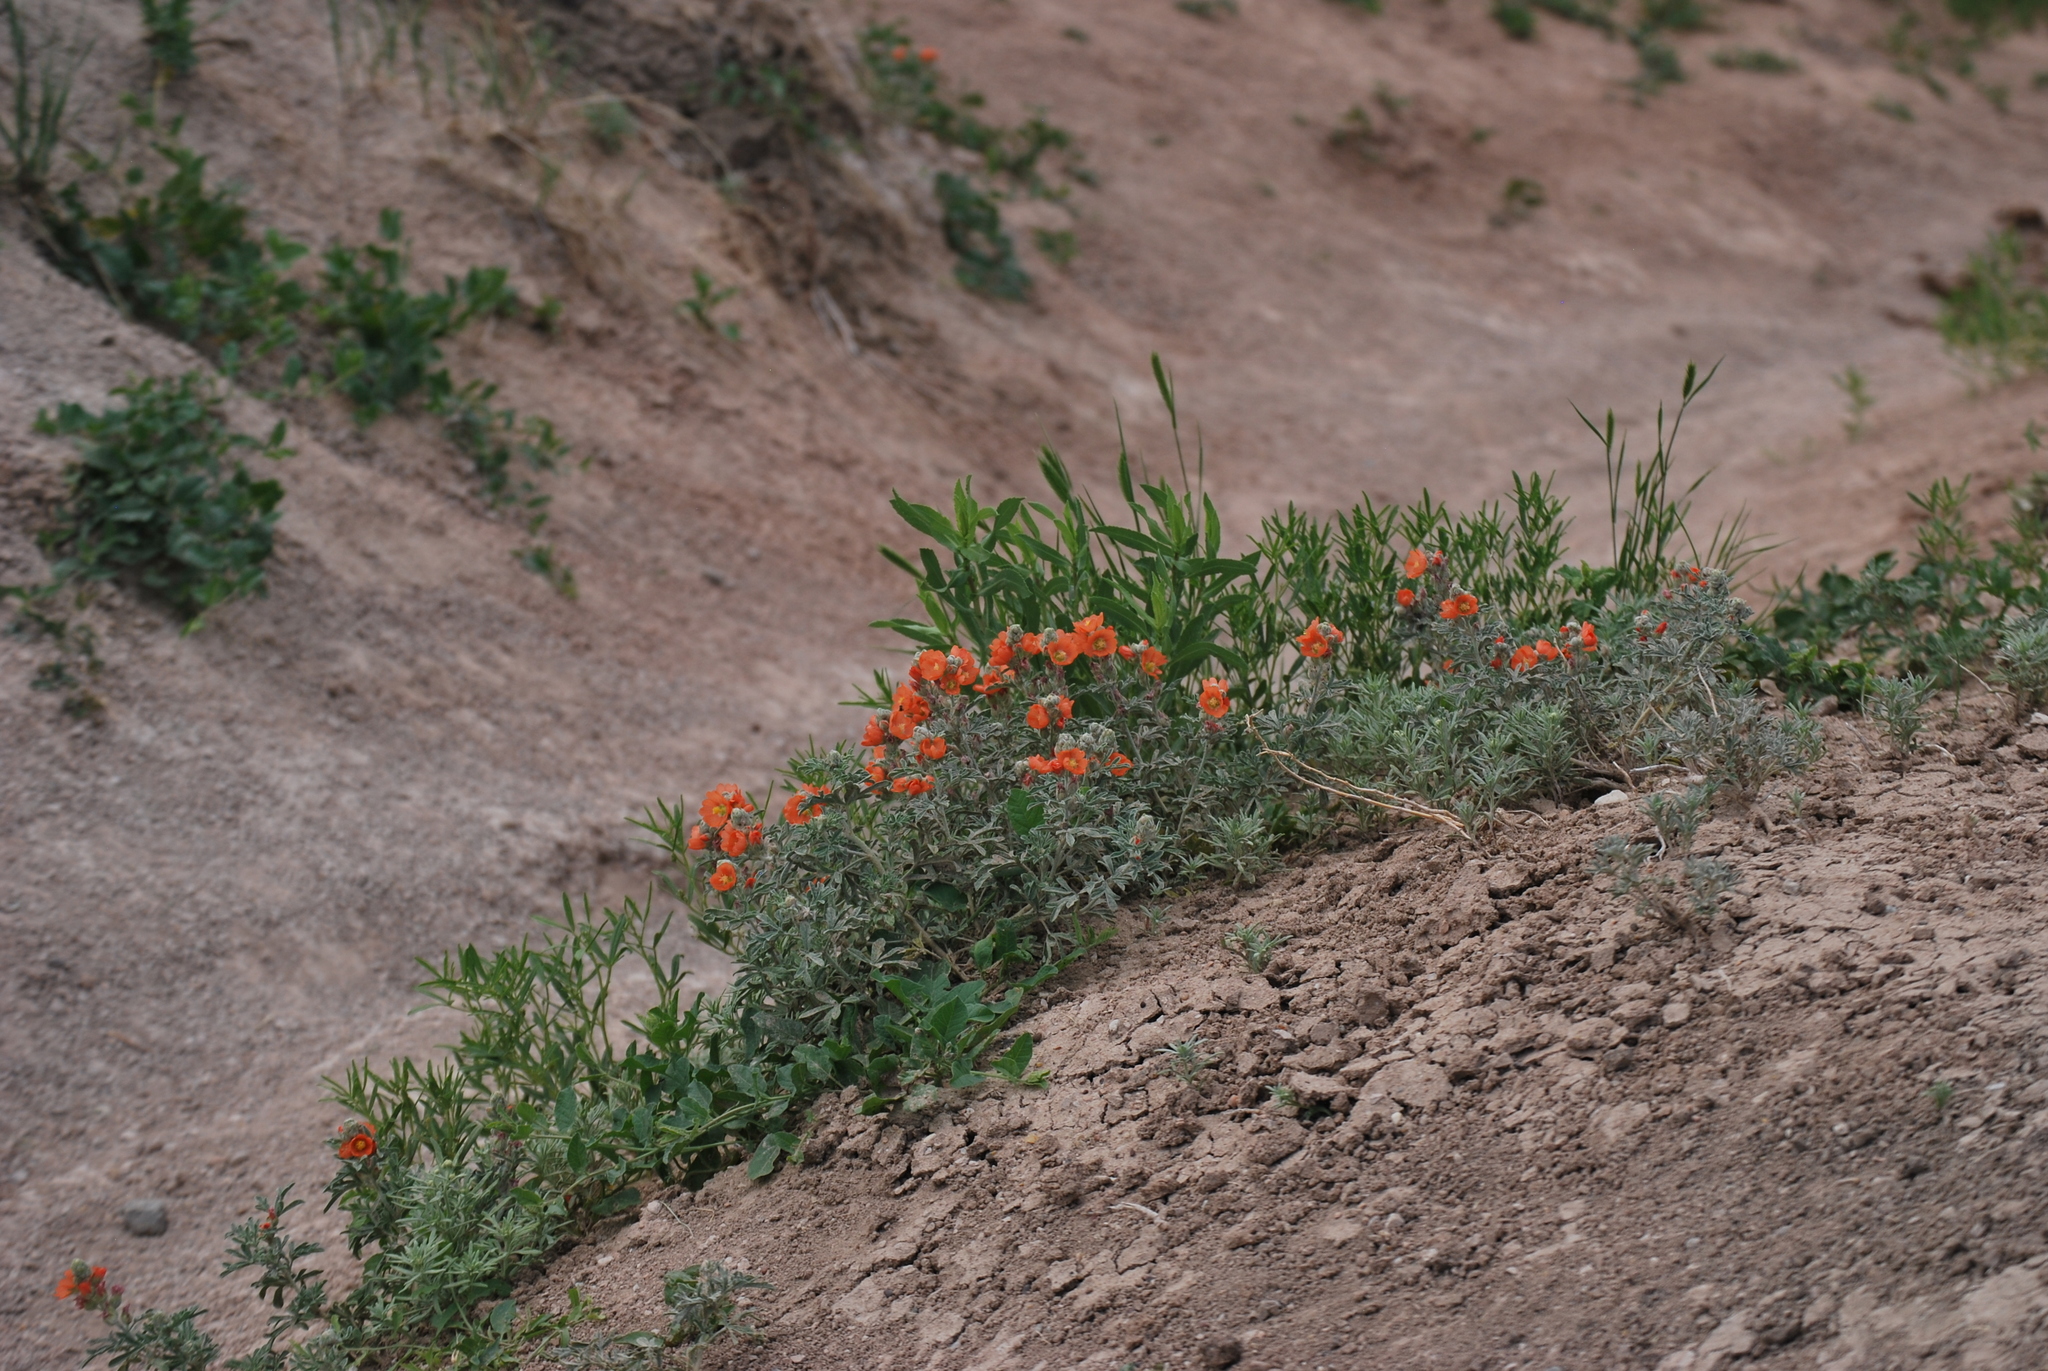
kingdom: Plantae
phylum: Tracheophyta
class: Magnoliopsida
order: Malvales
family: Malvaceae
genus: Sphaeralcea
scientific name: Sphaeralcea coccinea
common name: Moss-rose
